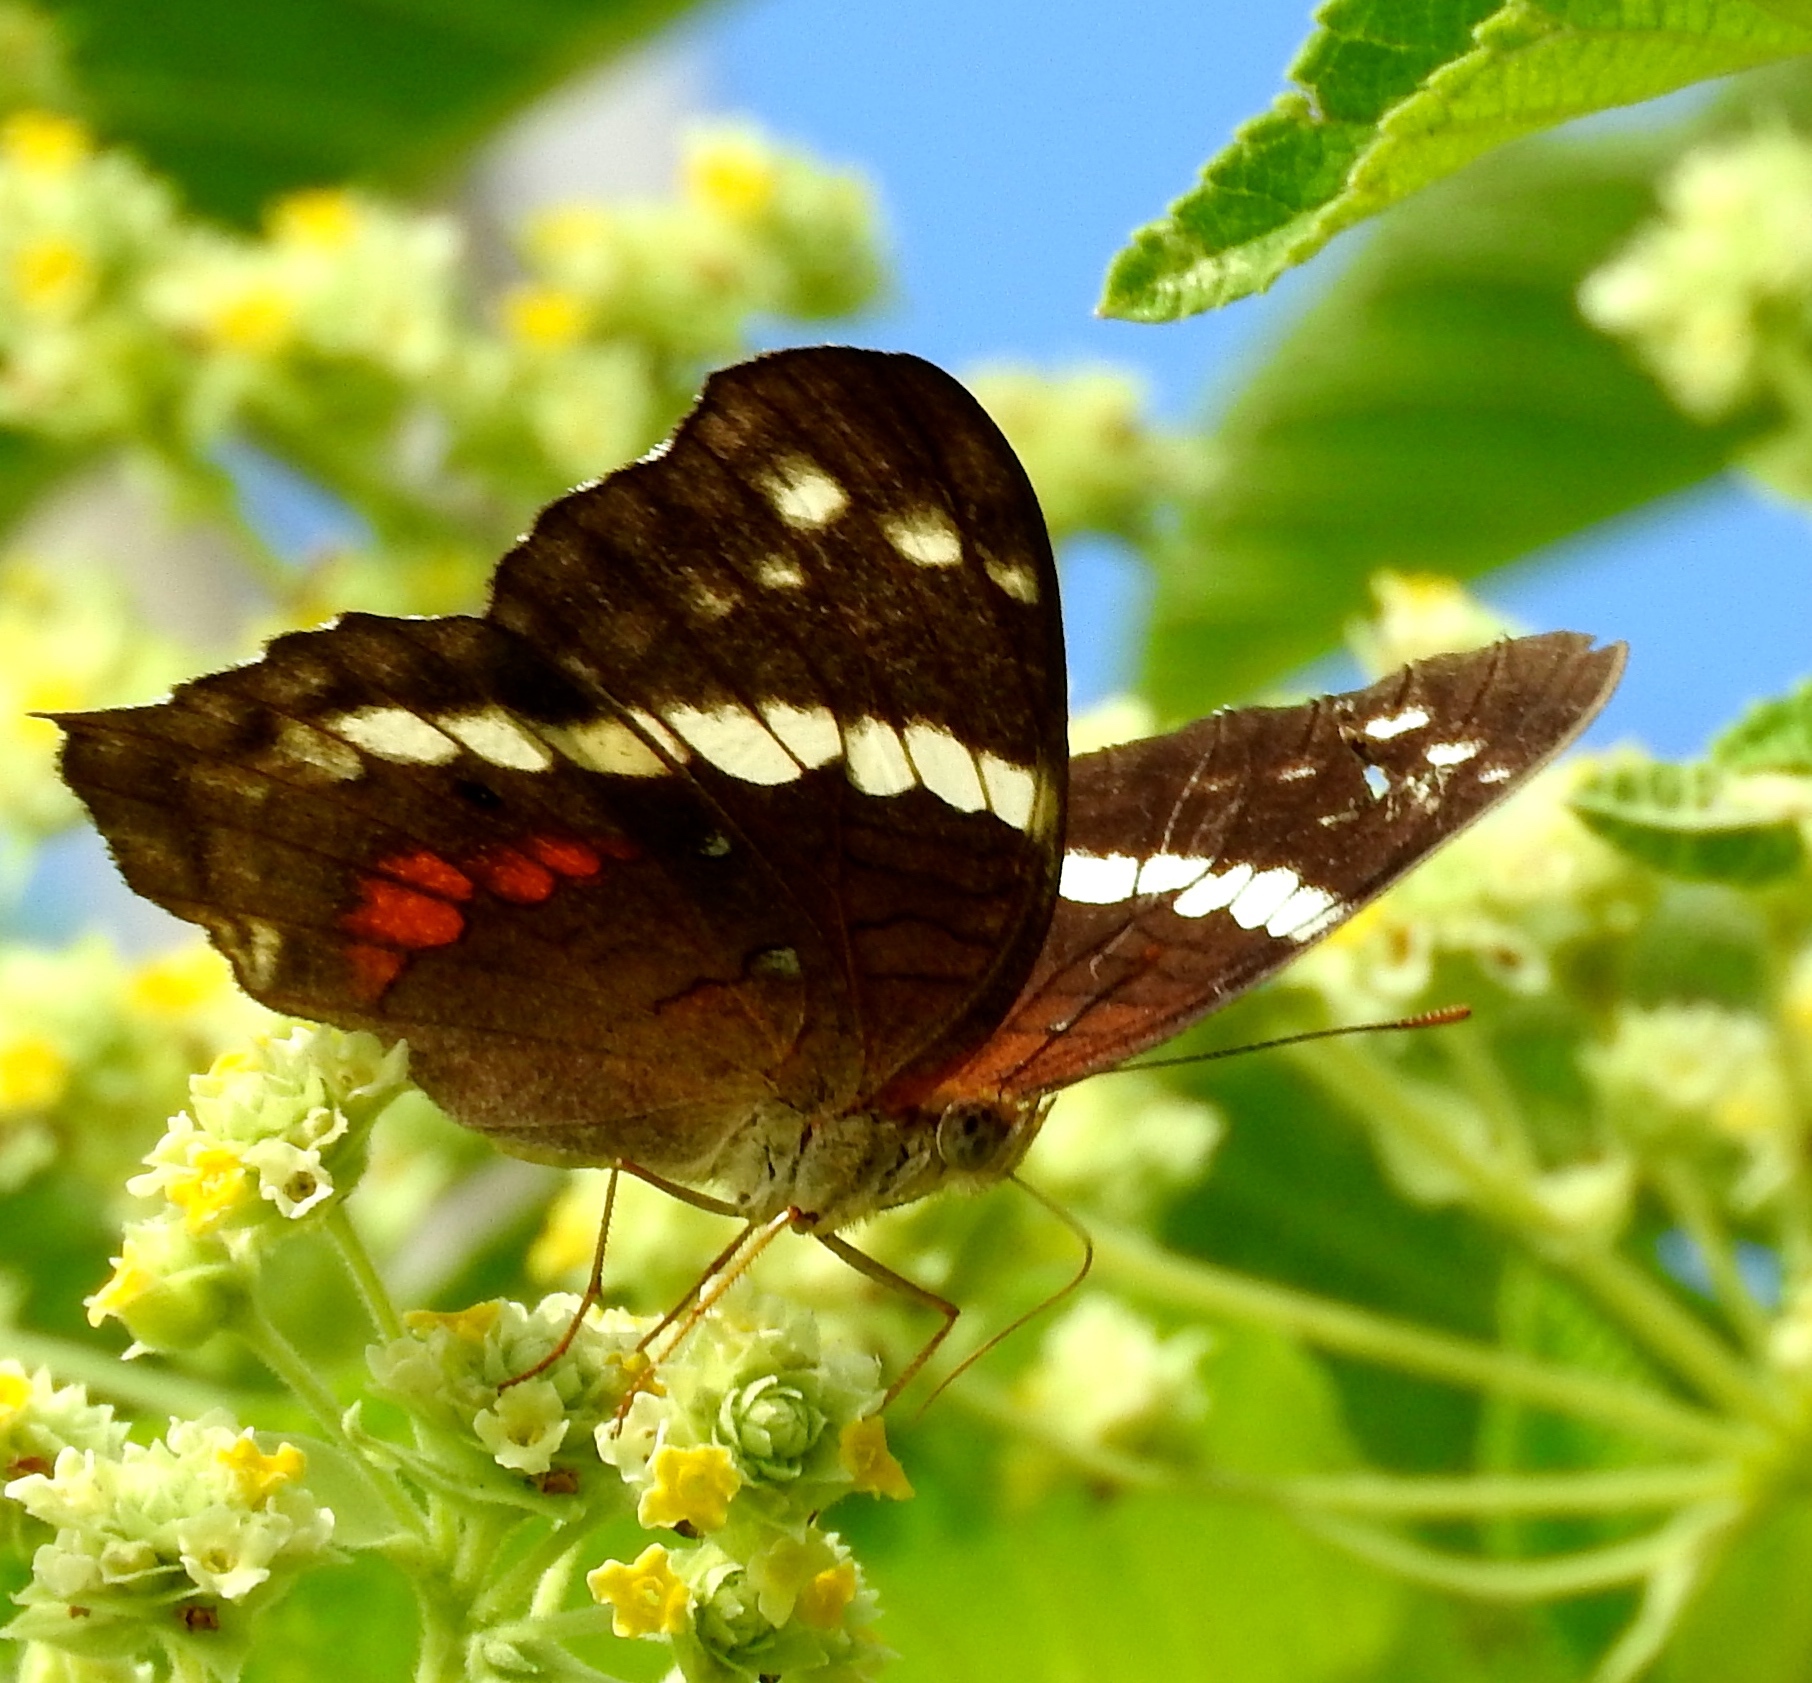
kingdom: Animalia
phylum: Arthropoda
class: Insecta
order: Lepidoptera
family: Nymphalidae
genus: Anartia
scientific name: Anartia fatima
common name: Banded peacock
